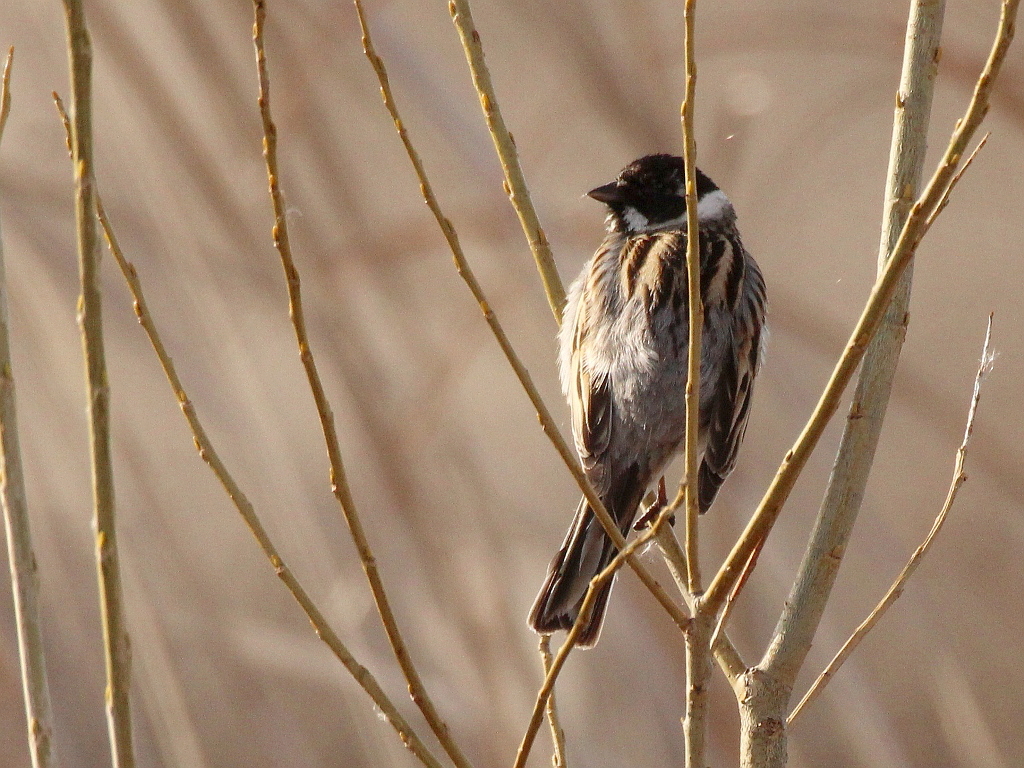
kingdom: Animalia
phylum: Chordata
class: Aves
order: Passeriformes
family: Emberizidae
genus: Emberiza
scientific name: Emberiza schoeniclus
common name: Reed bunting
